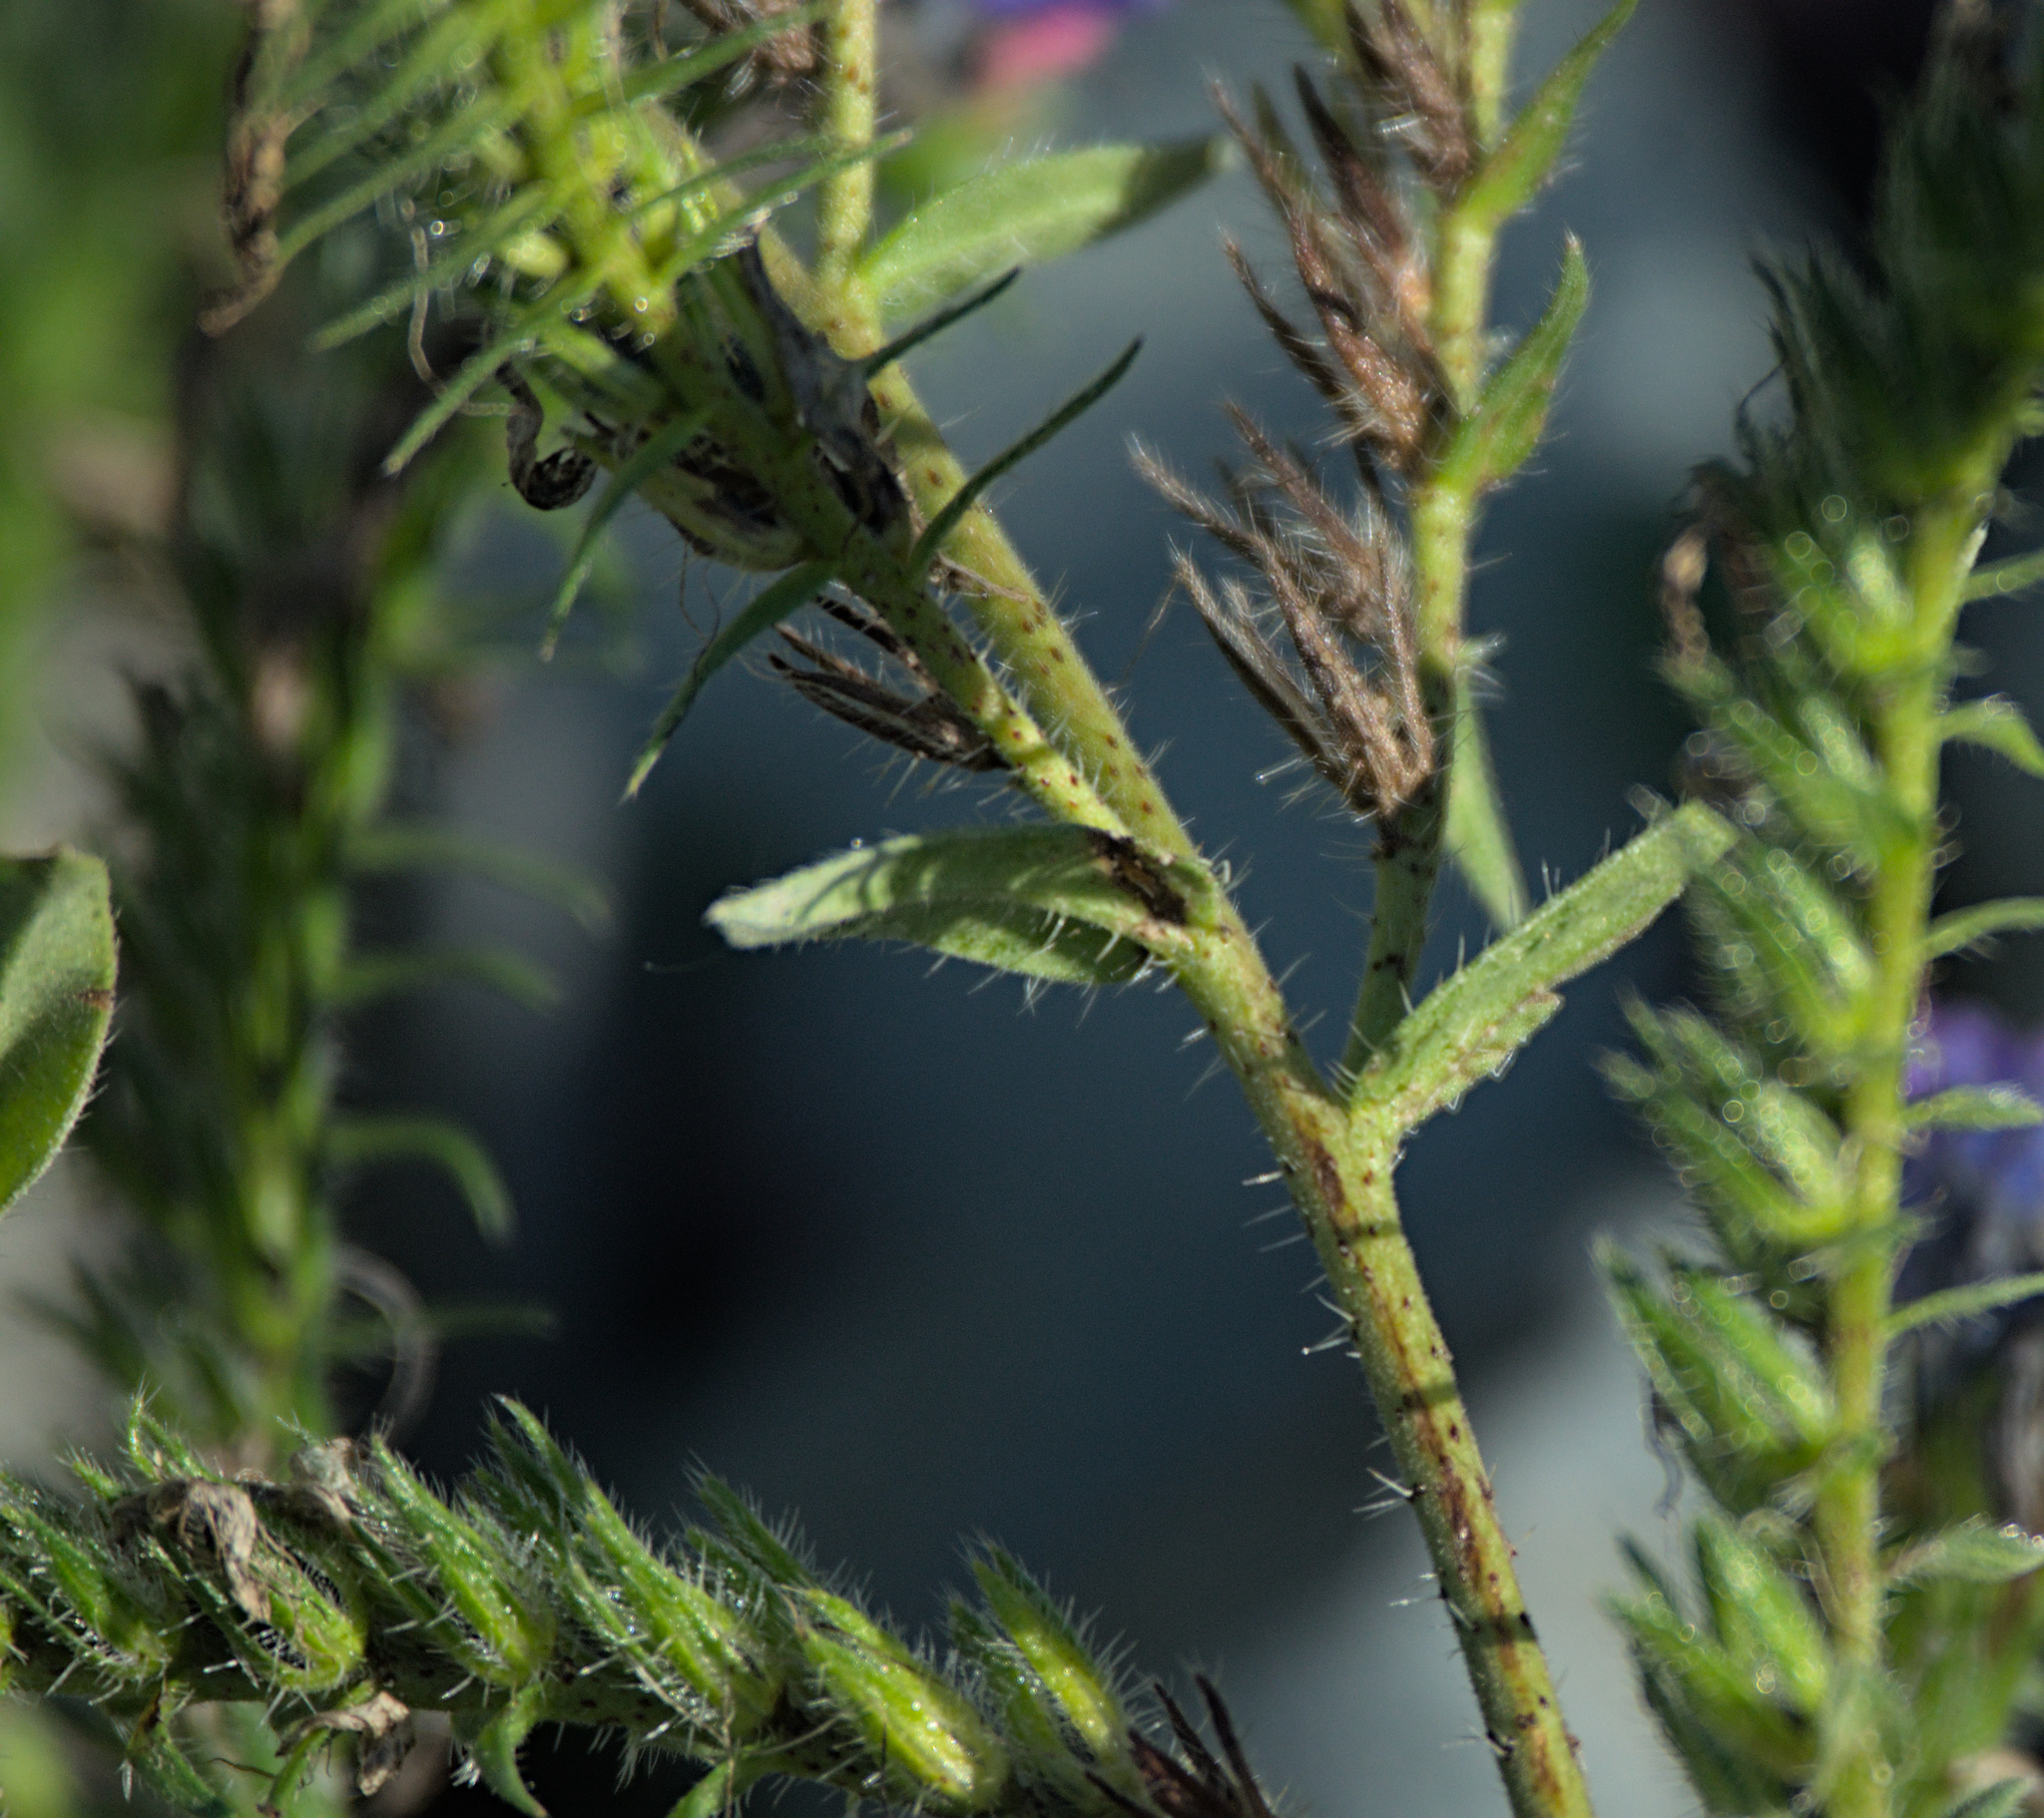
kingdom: Plantae
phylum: Tracheophyta
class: Magnoliopsida
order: Boraginales
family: Boraginaceae
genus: Echium
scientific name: Echium vulgare
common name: Common viper's bugloss
